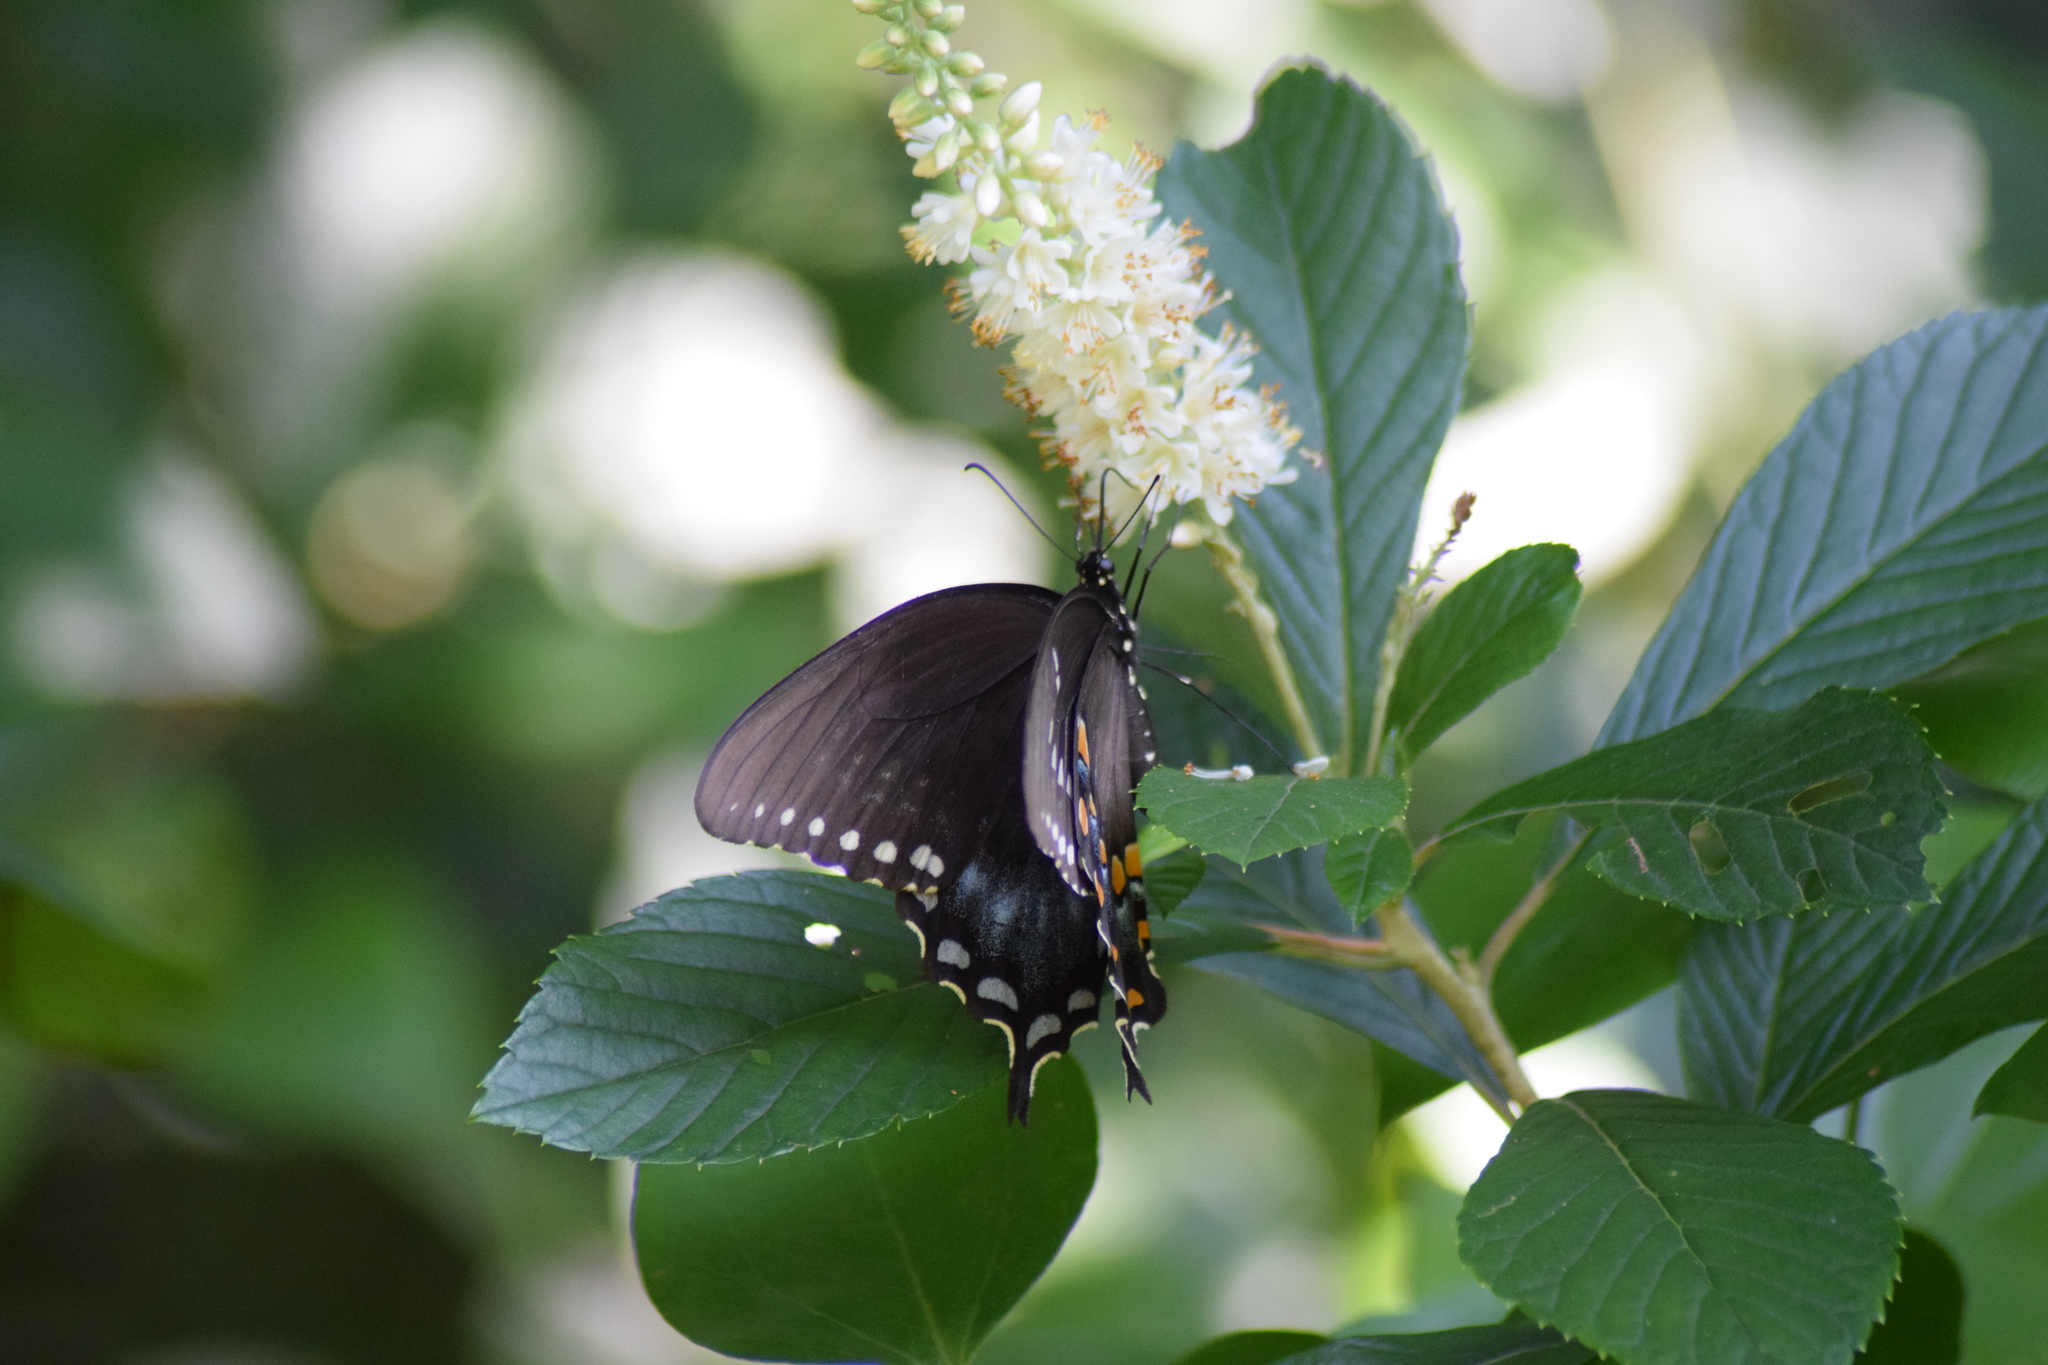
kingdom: Animalia
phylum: Arthropoda
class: Insecta
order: Lepidoptera
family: Papilionidae
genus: Papilio
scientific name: Papilio troilus
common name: Spicebush swallowtail
